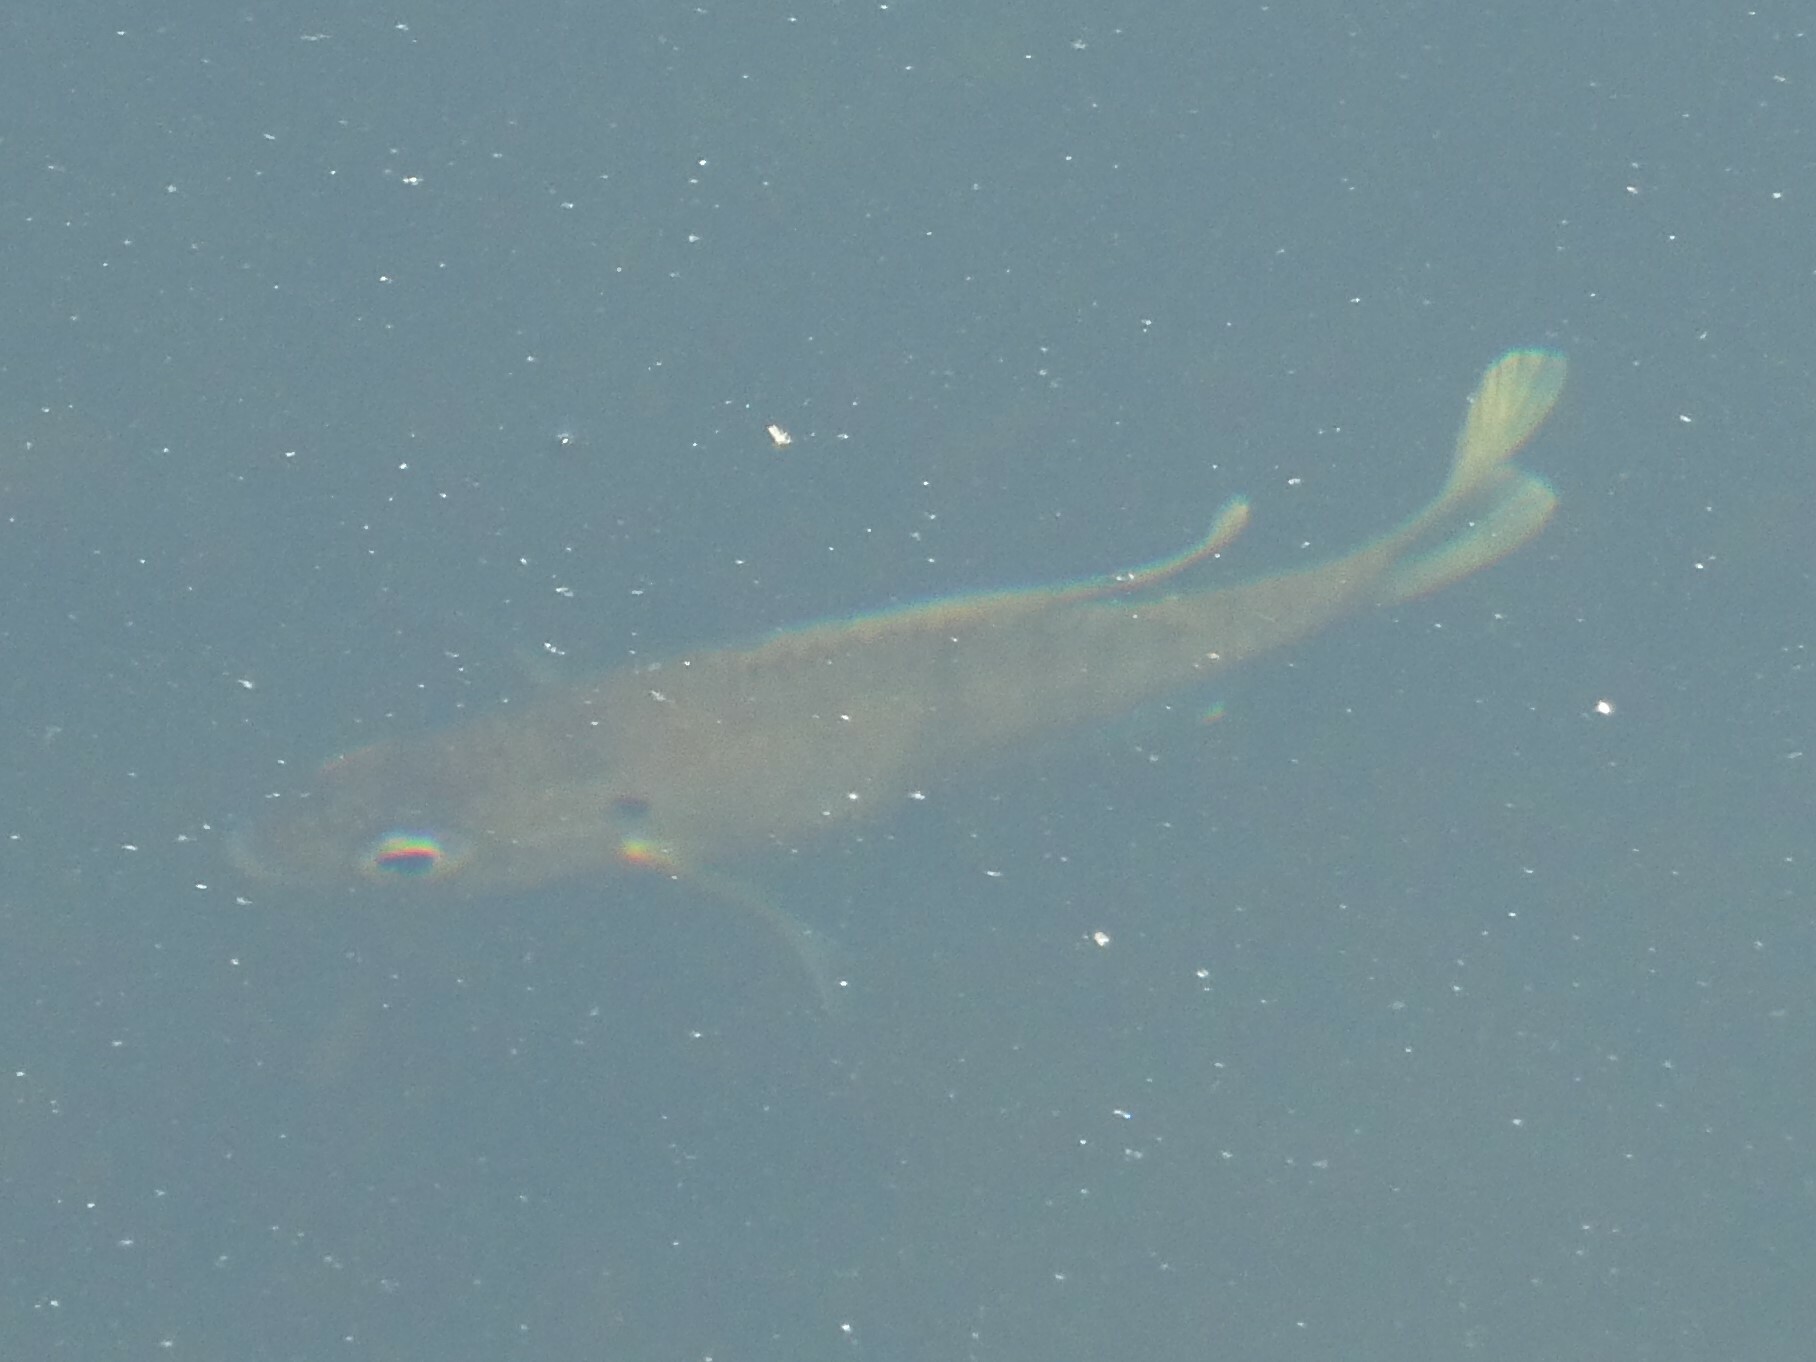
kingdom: Animalia
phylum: Chordata
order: Perciformes
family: Centrarchidae
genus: Lepomis
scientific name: Lepomis macrochirus
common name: Bluegill
